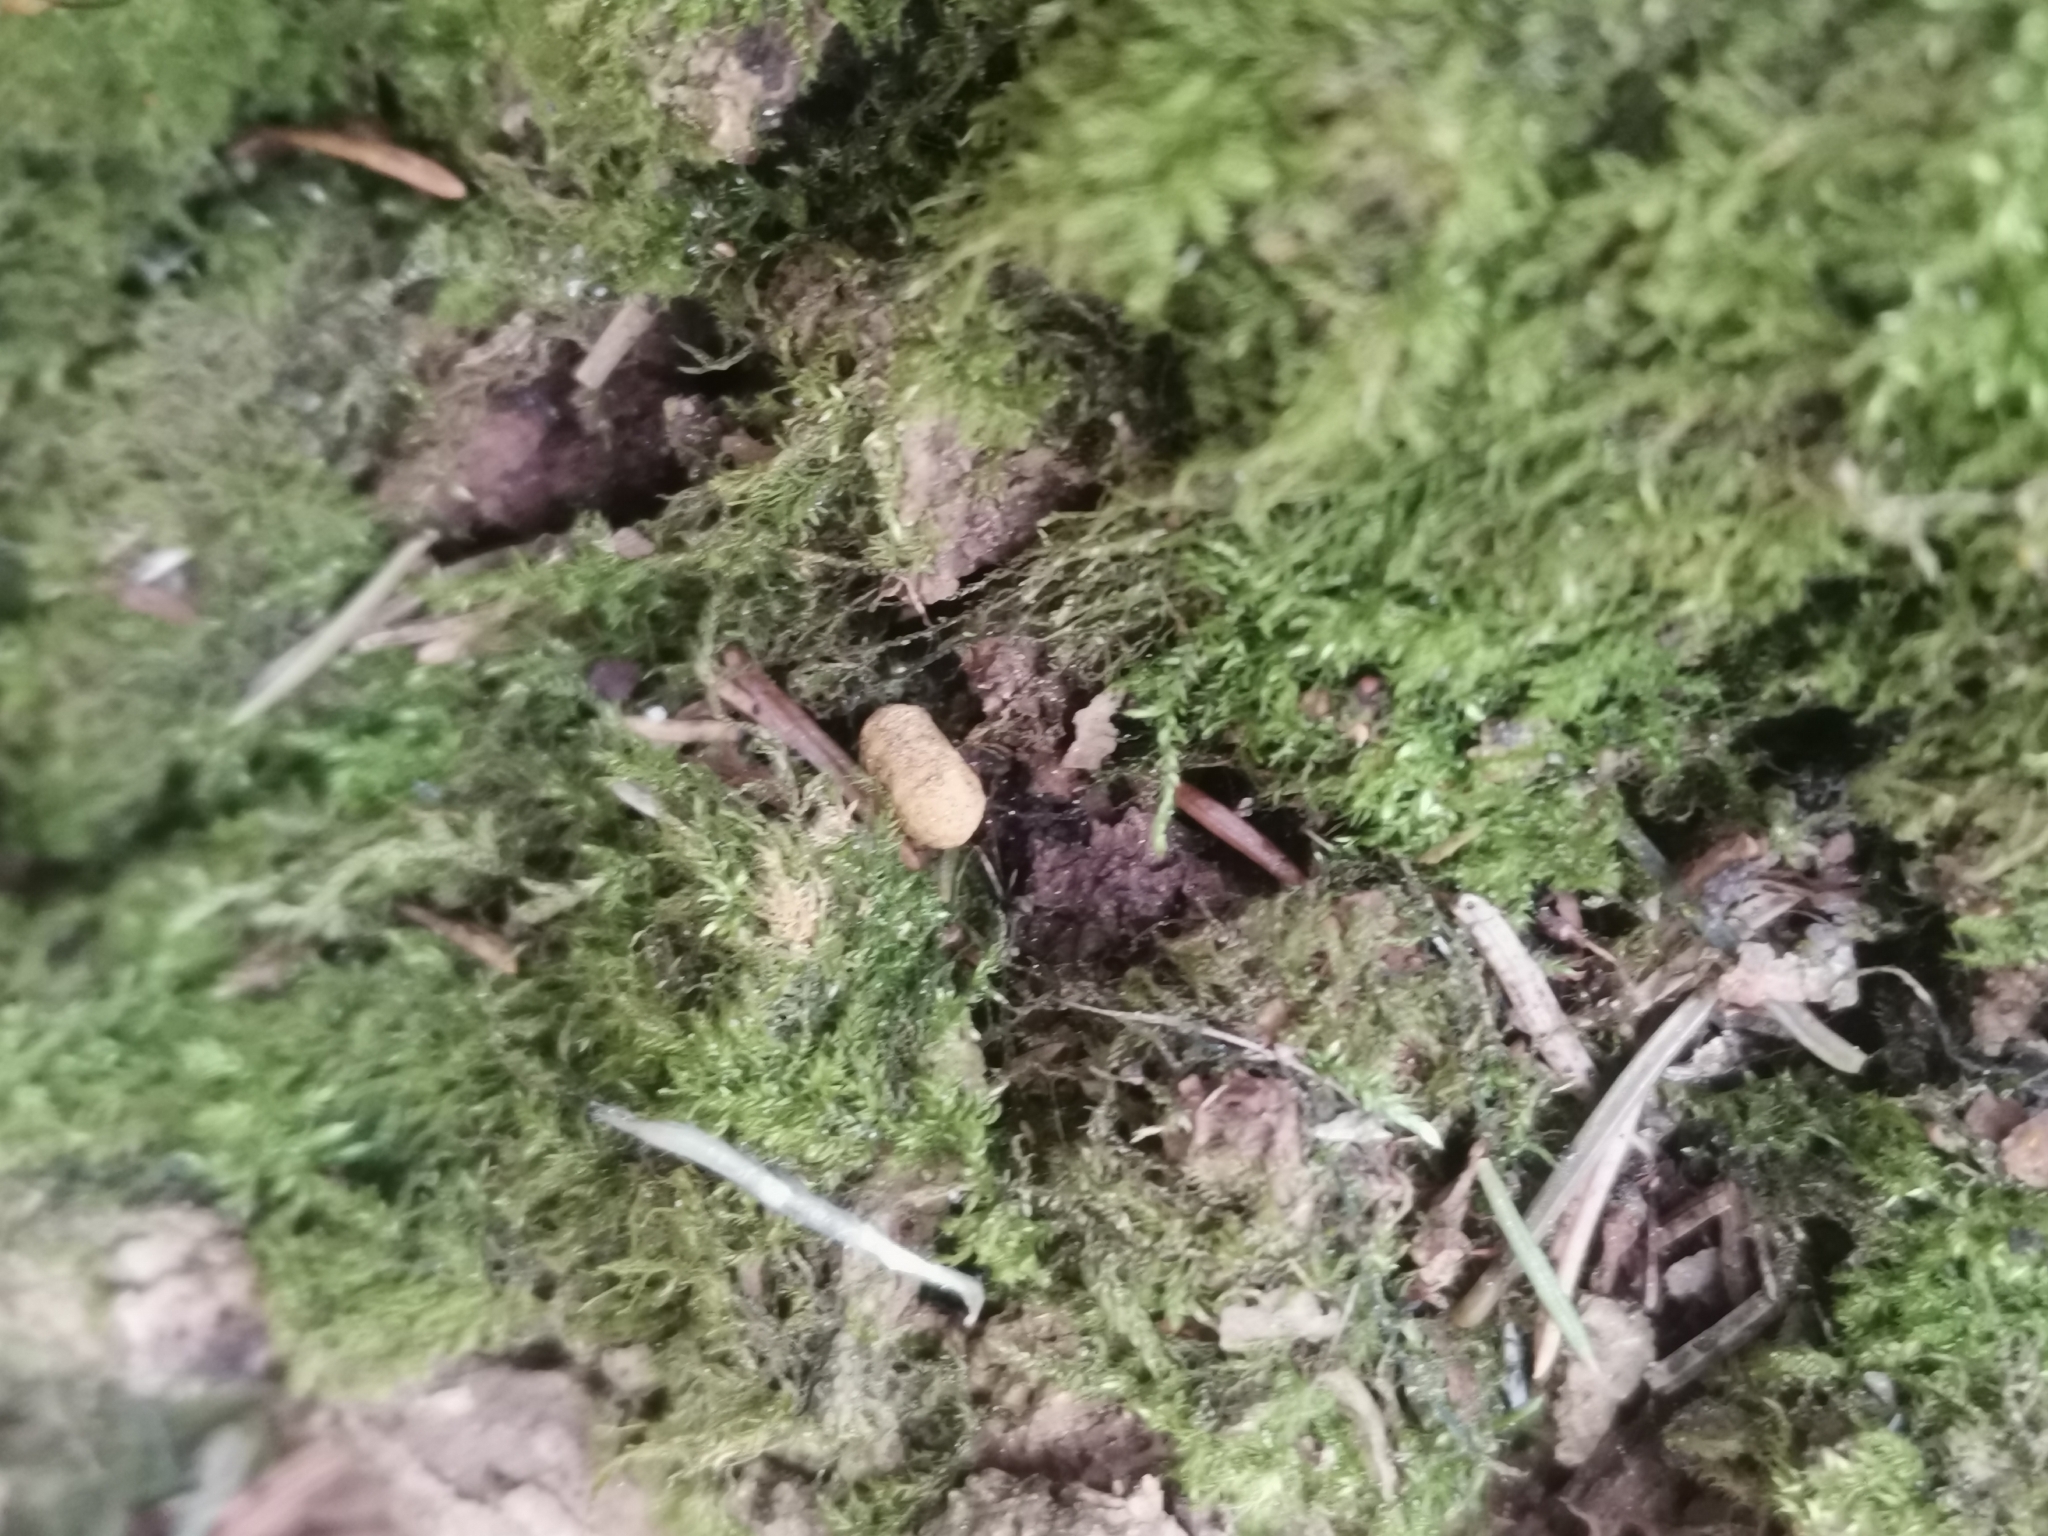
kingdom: Animalia
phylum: Chordata
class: Mammalia
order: Rodentia
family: Sciuridae
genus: Pteromys
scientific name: Pteromys volans
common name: Siberian flying squirrel
